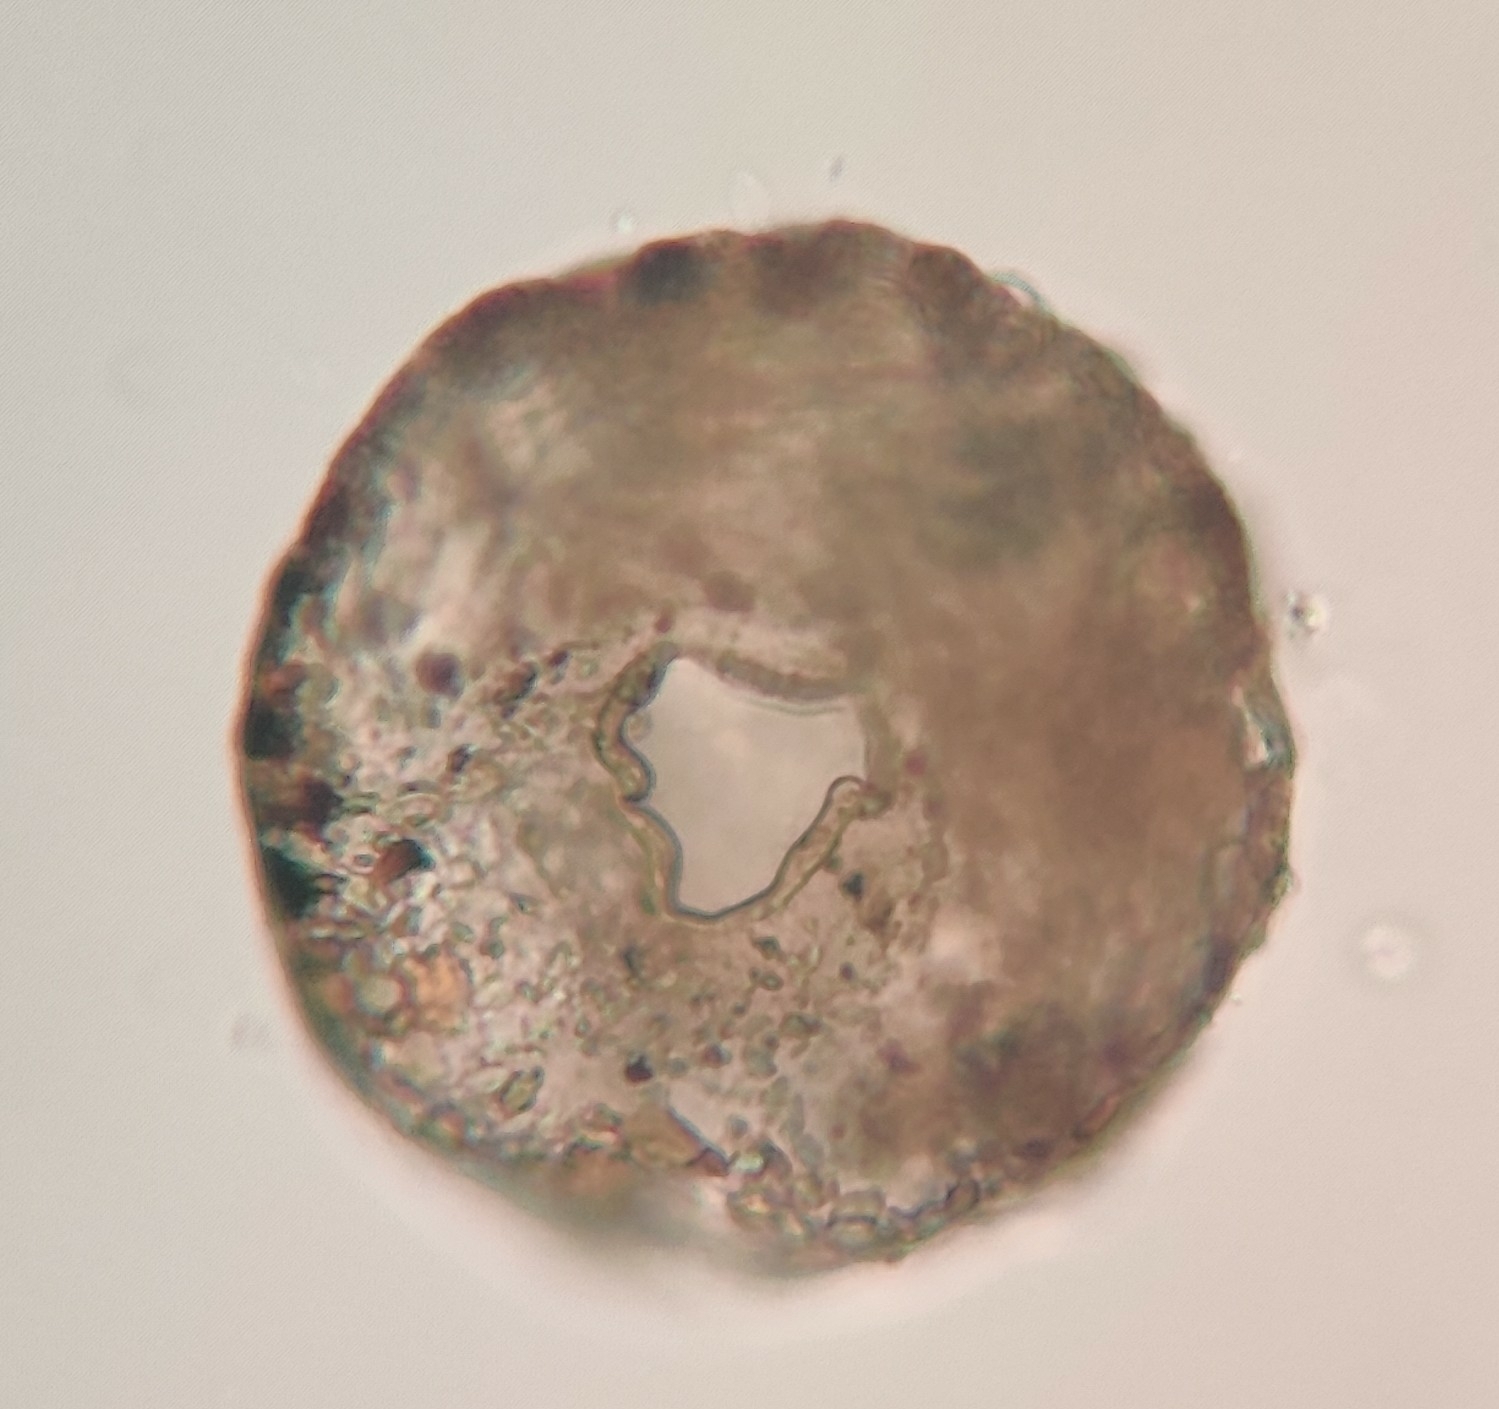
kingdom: Protozoa
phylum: Amoebozoa
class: Lobosa
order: Arcellinida
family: Trigonopyxidae
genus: Trigonopyxis
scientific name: Trigonopyxis arcula
